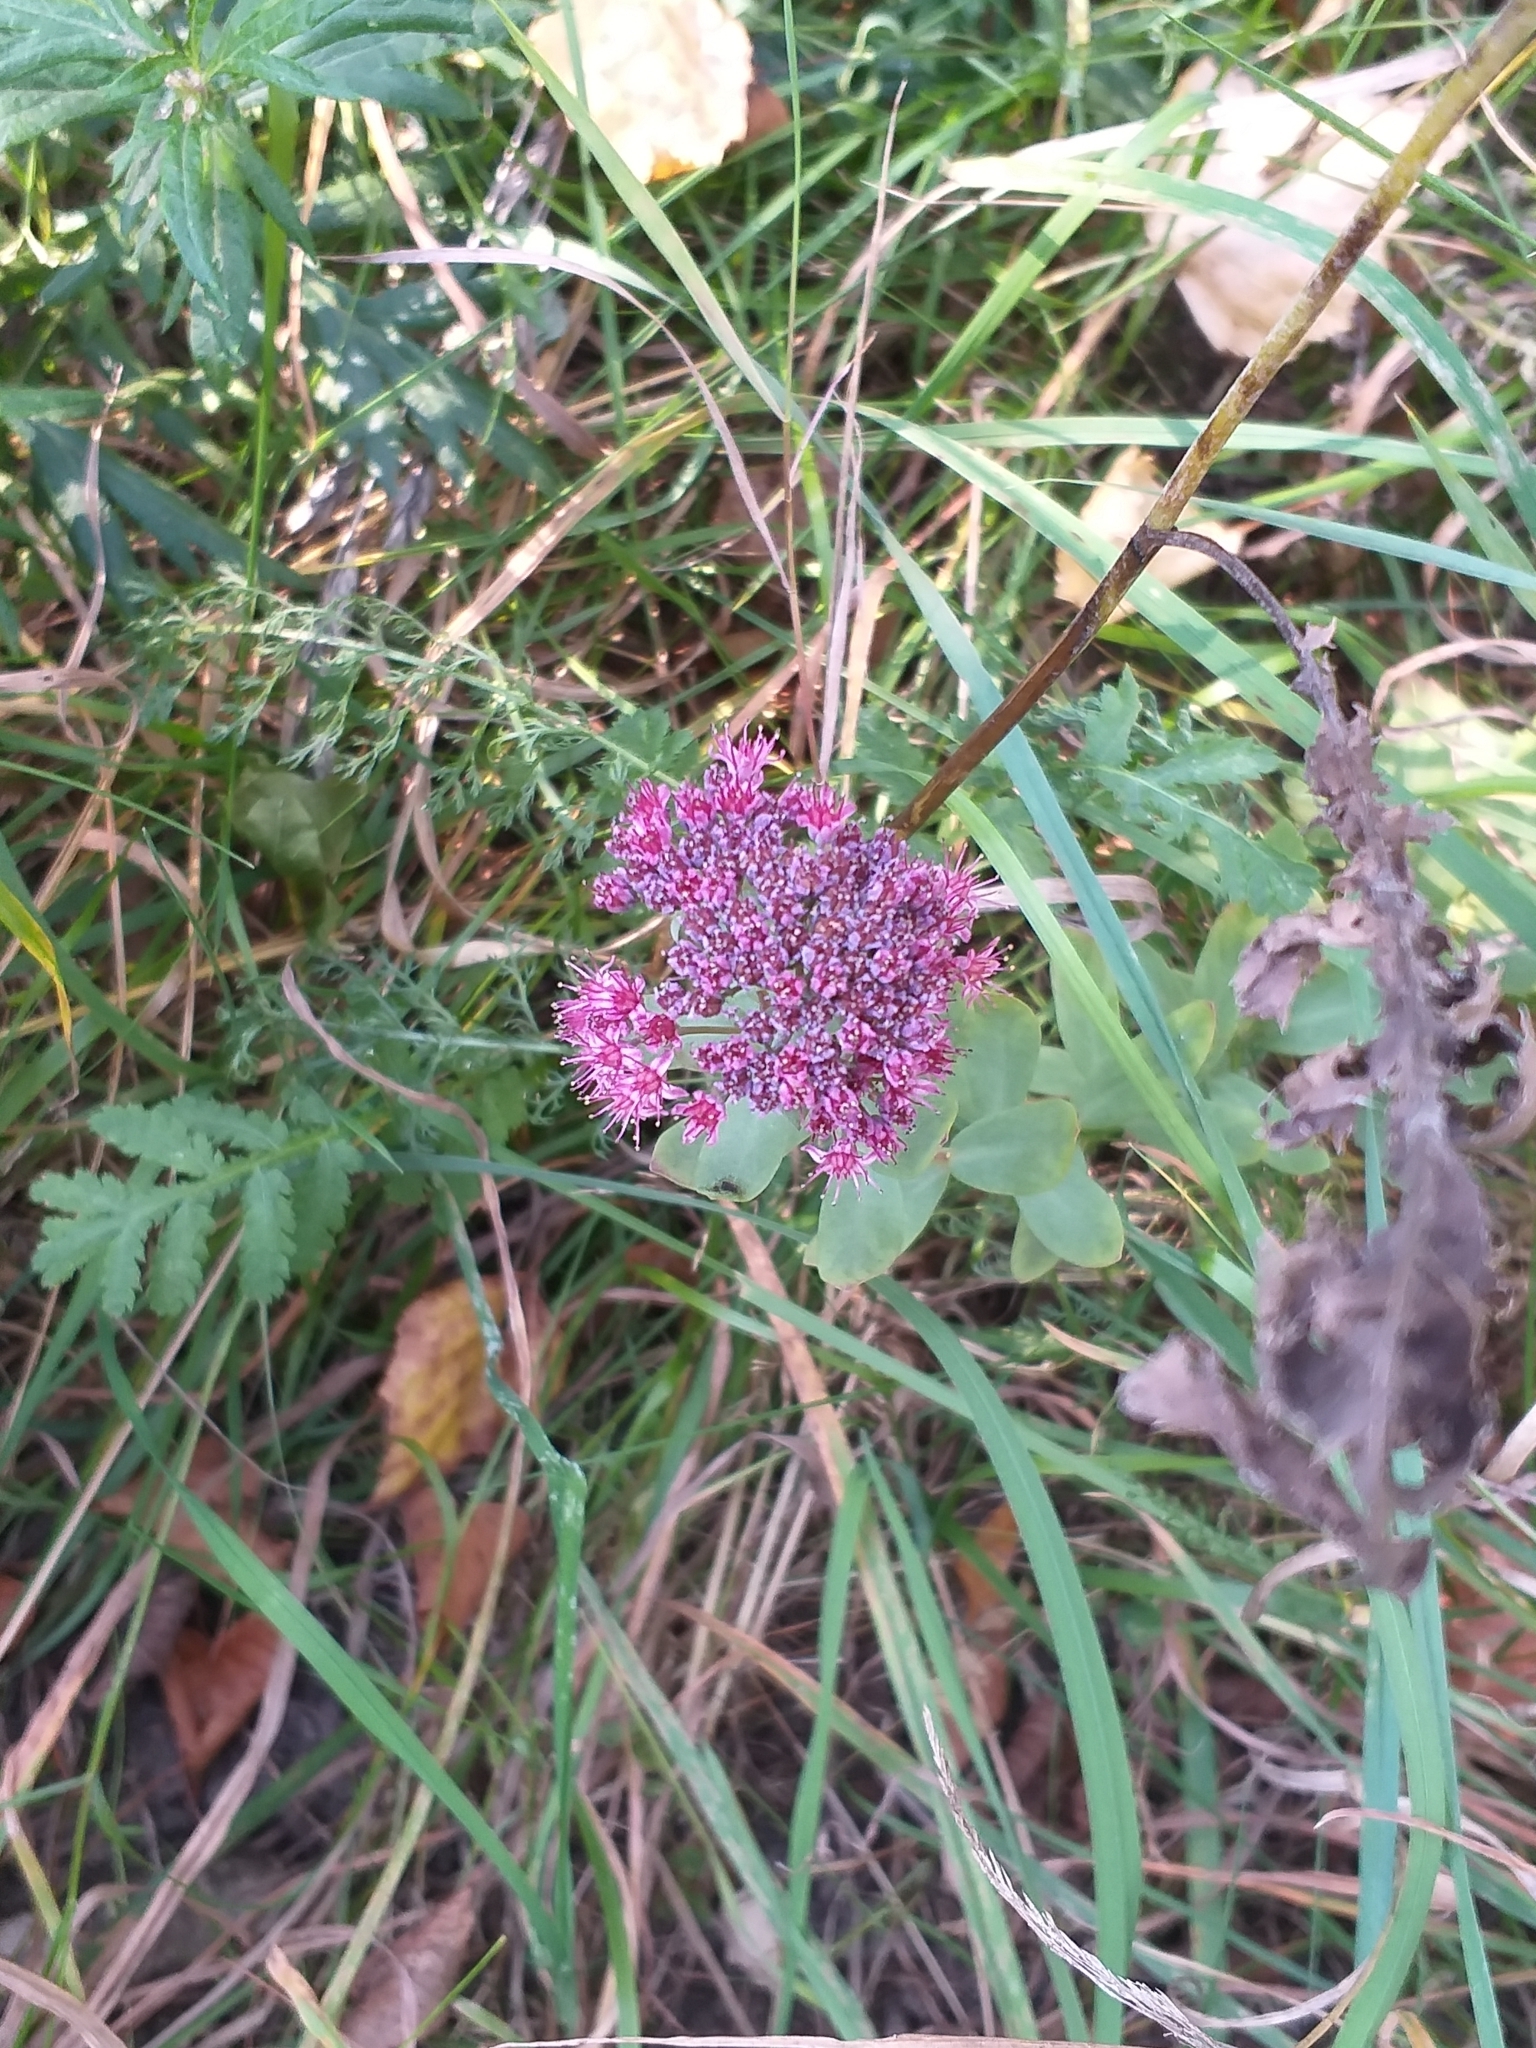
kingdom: Plantae
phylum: Tracheophyta
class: Magnoliopsida
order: Saxifragales
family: Crassulaceae
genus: Hylotelephium
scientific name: Hylotelephium telephium
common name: Live-forever
